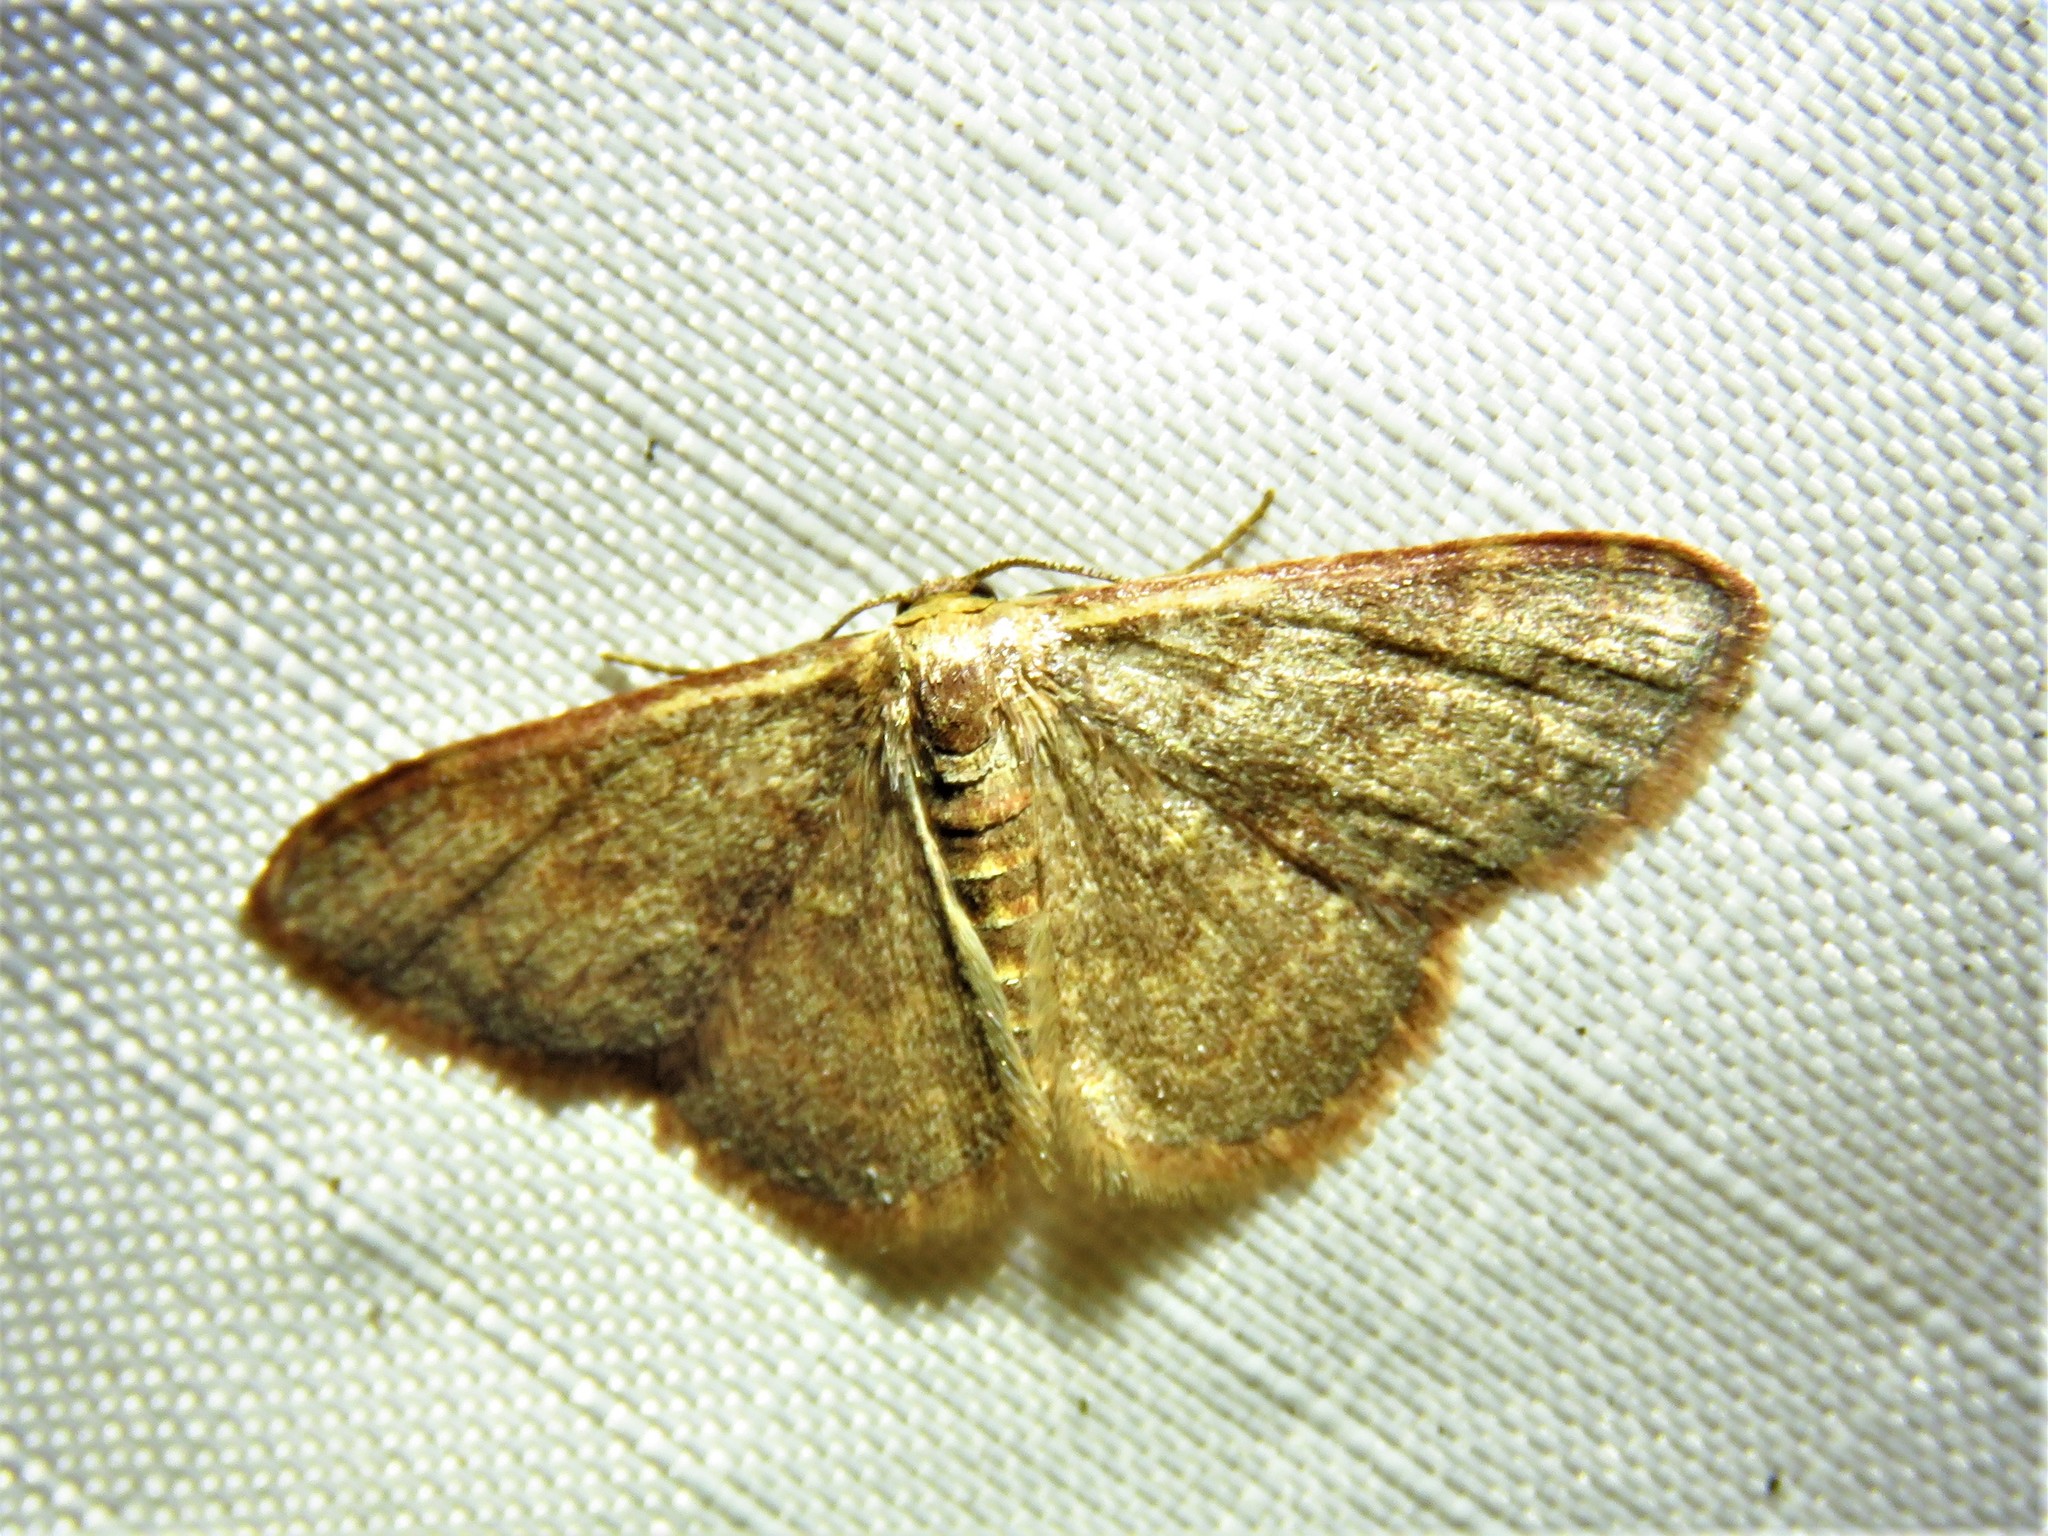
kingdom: Animalia
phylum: Arthropoda
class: Insecta
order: Lepidoptera
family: Geometridae
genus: Leptostales
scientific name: Leptostales pannaria
